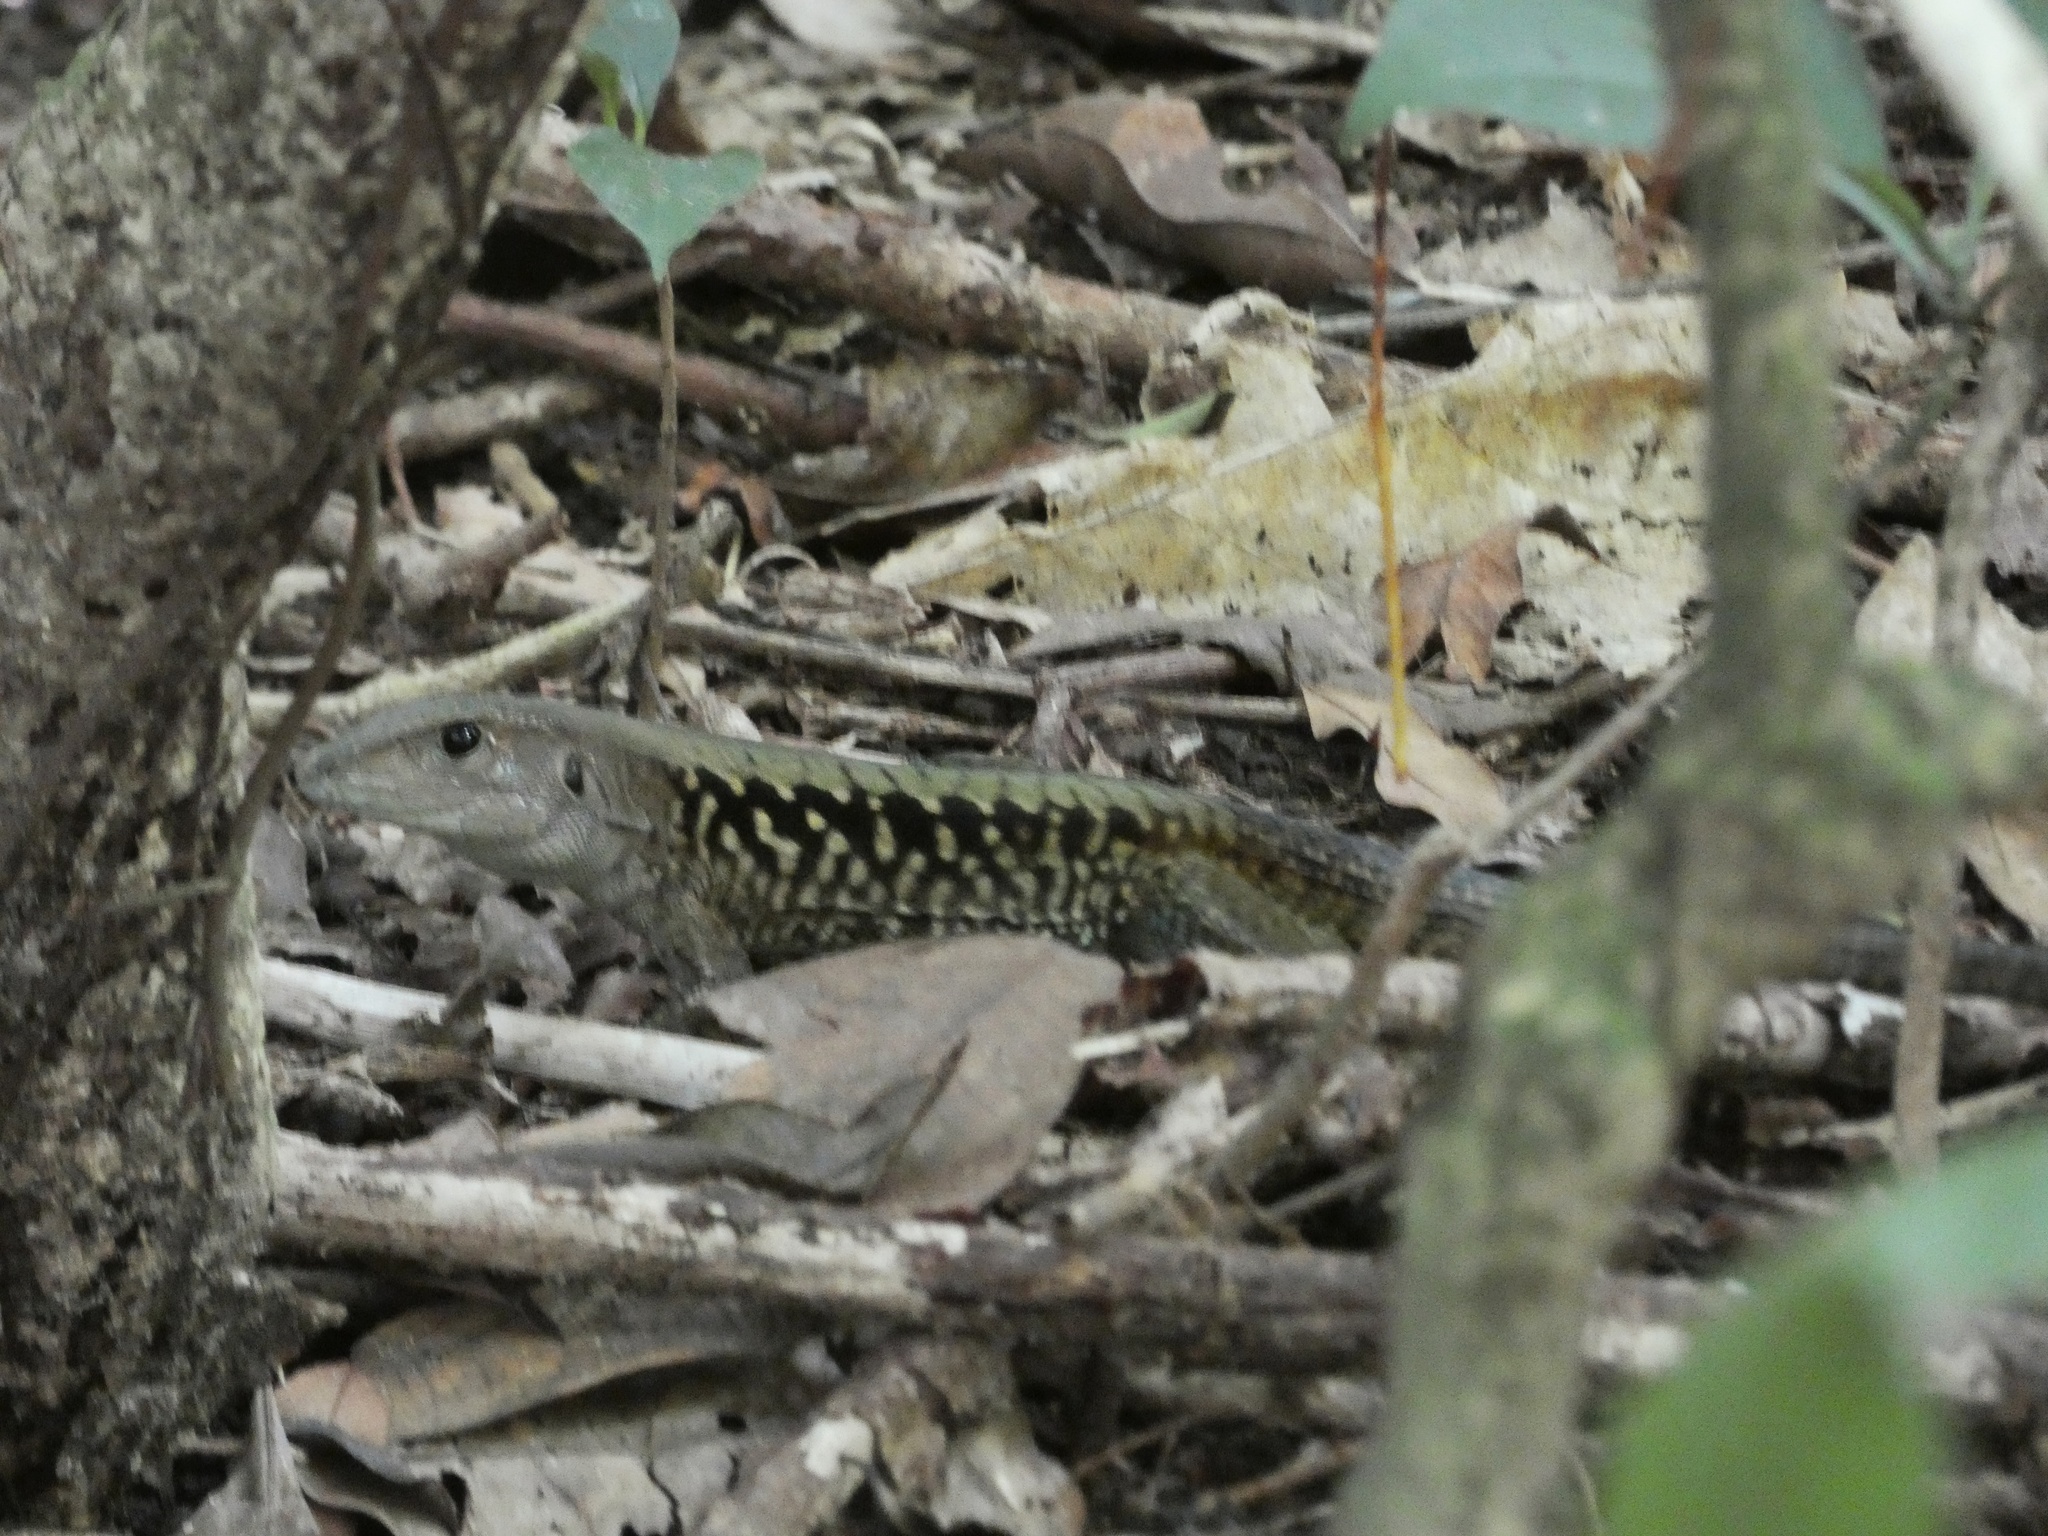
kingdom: Animalia
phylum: Chordata
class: Squamata
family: Teiidae
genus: Holcosus
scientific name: Holcosus leptophrys
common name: Delicate ameiva
